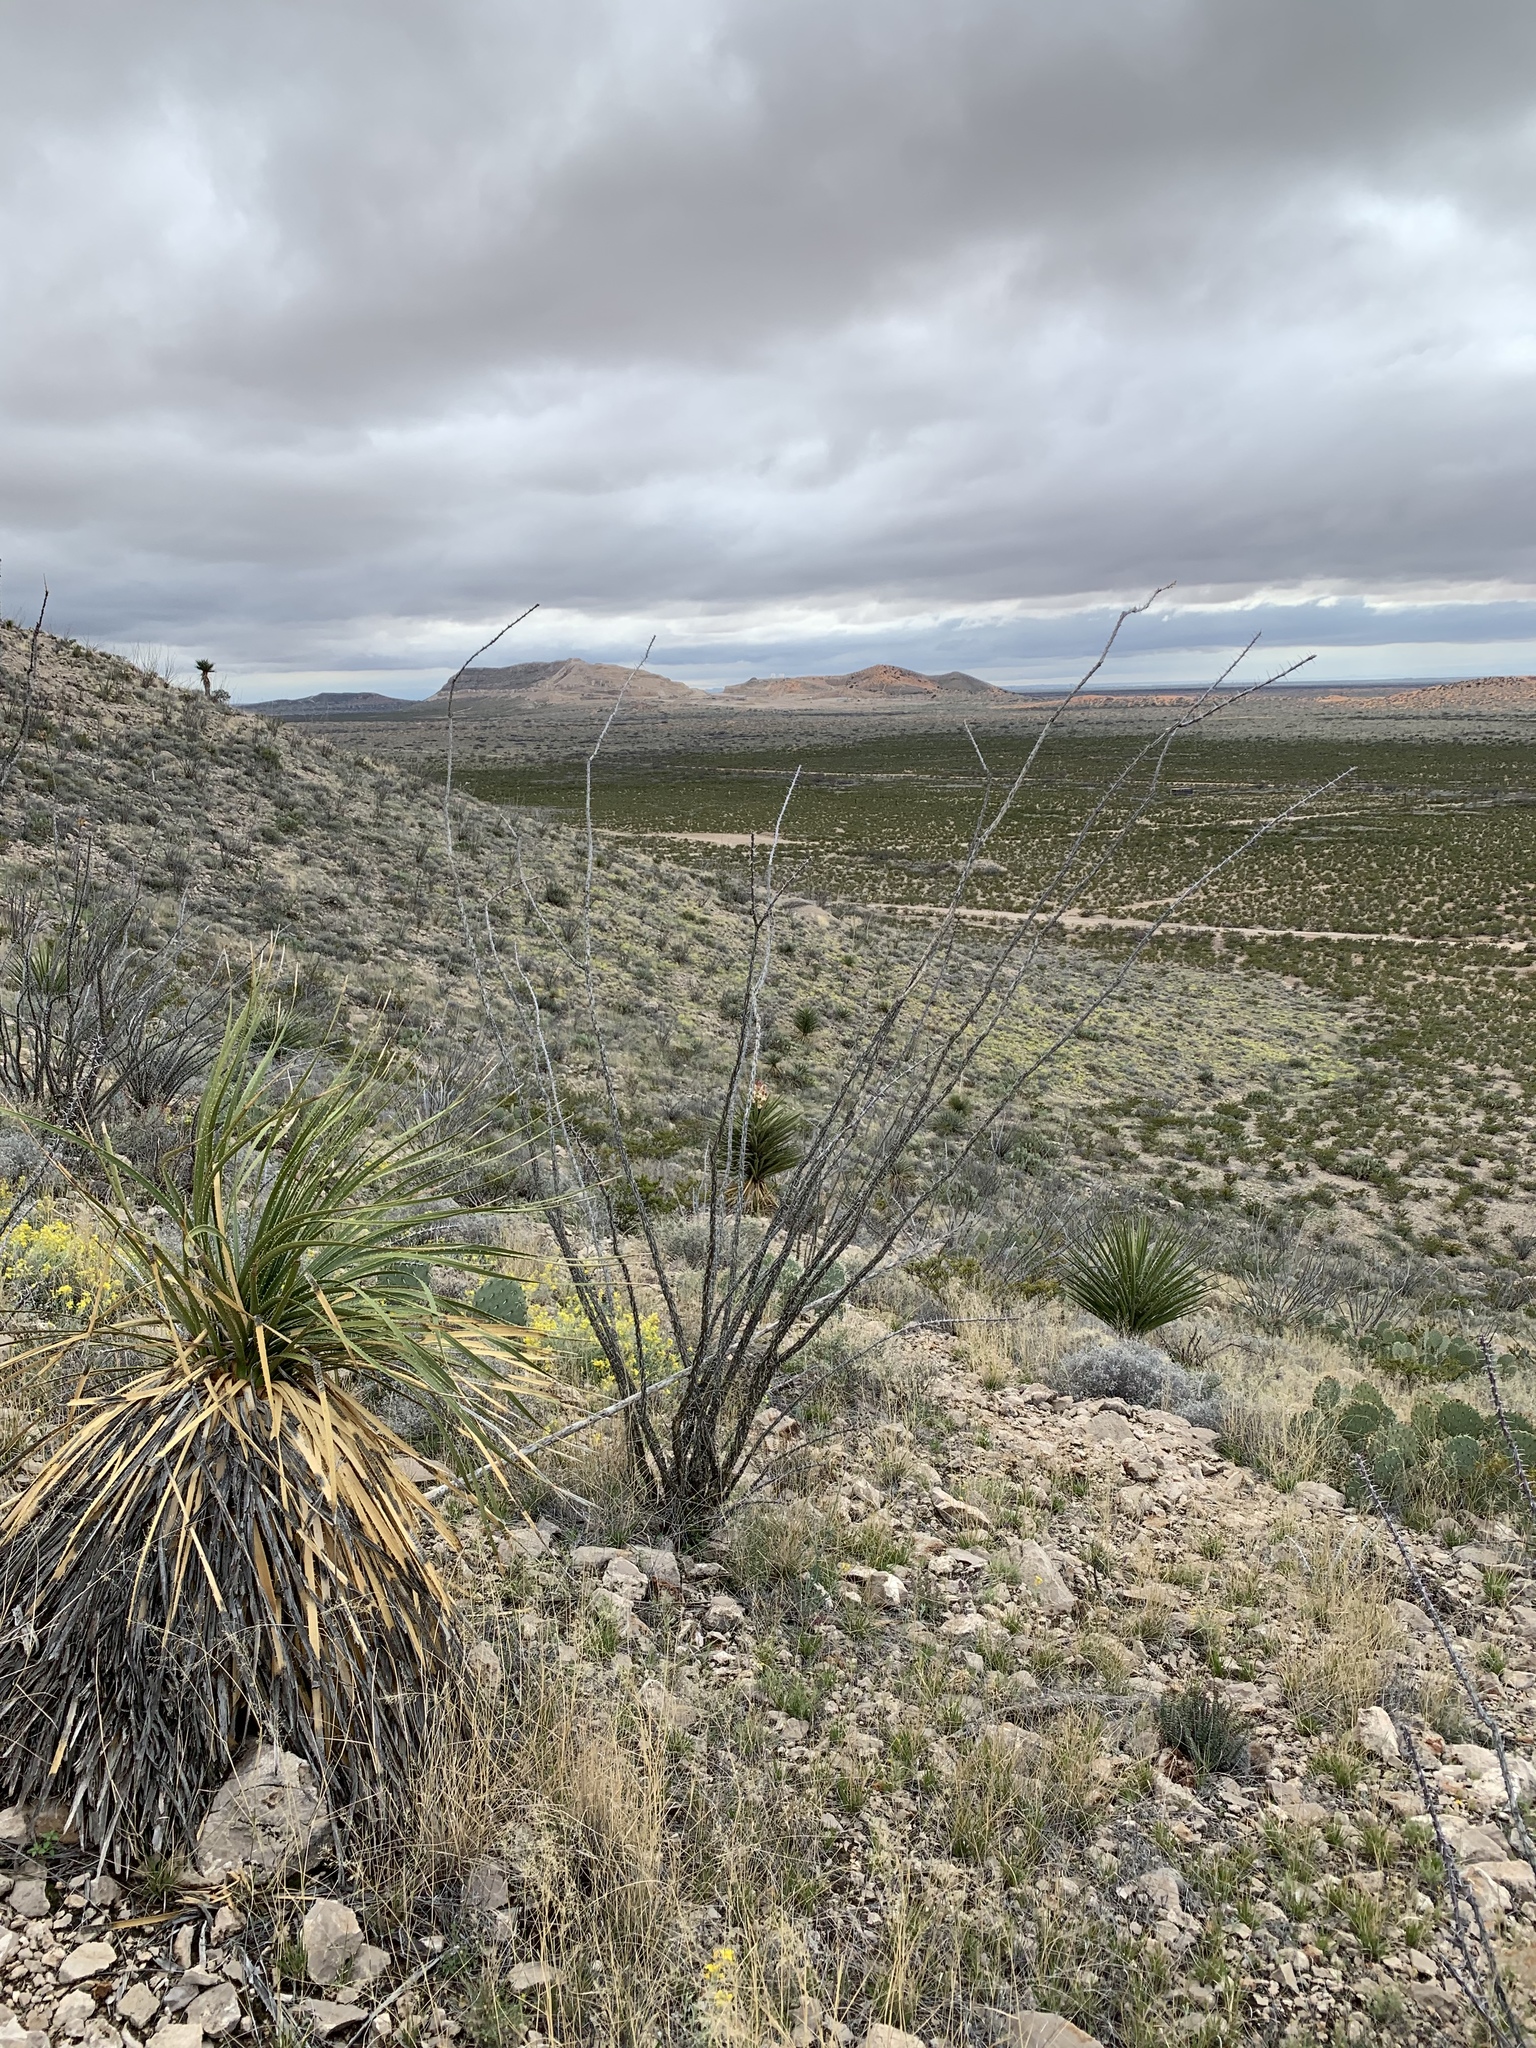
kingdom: Plantae
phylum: Tracheophyta
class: Magnoliopsida
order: Ericales
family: Fouquieriaceae
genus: Fouquieria
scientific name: Fouquieria splendens
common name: Vine-cactus
